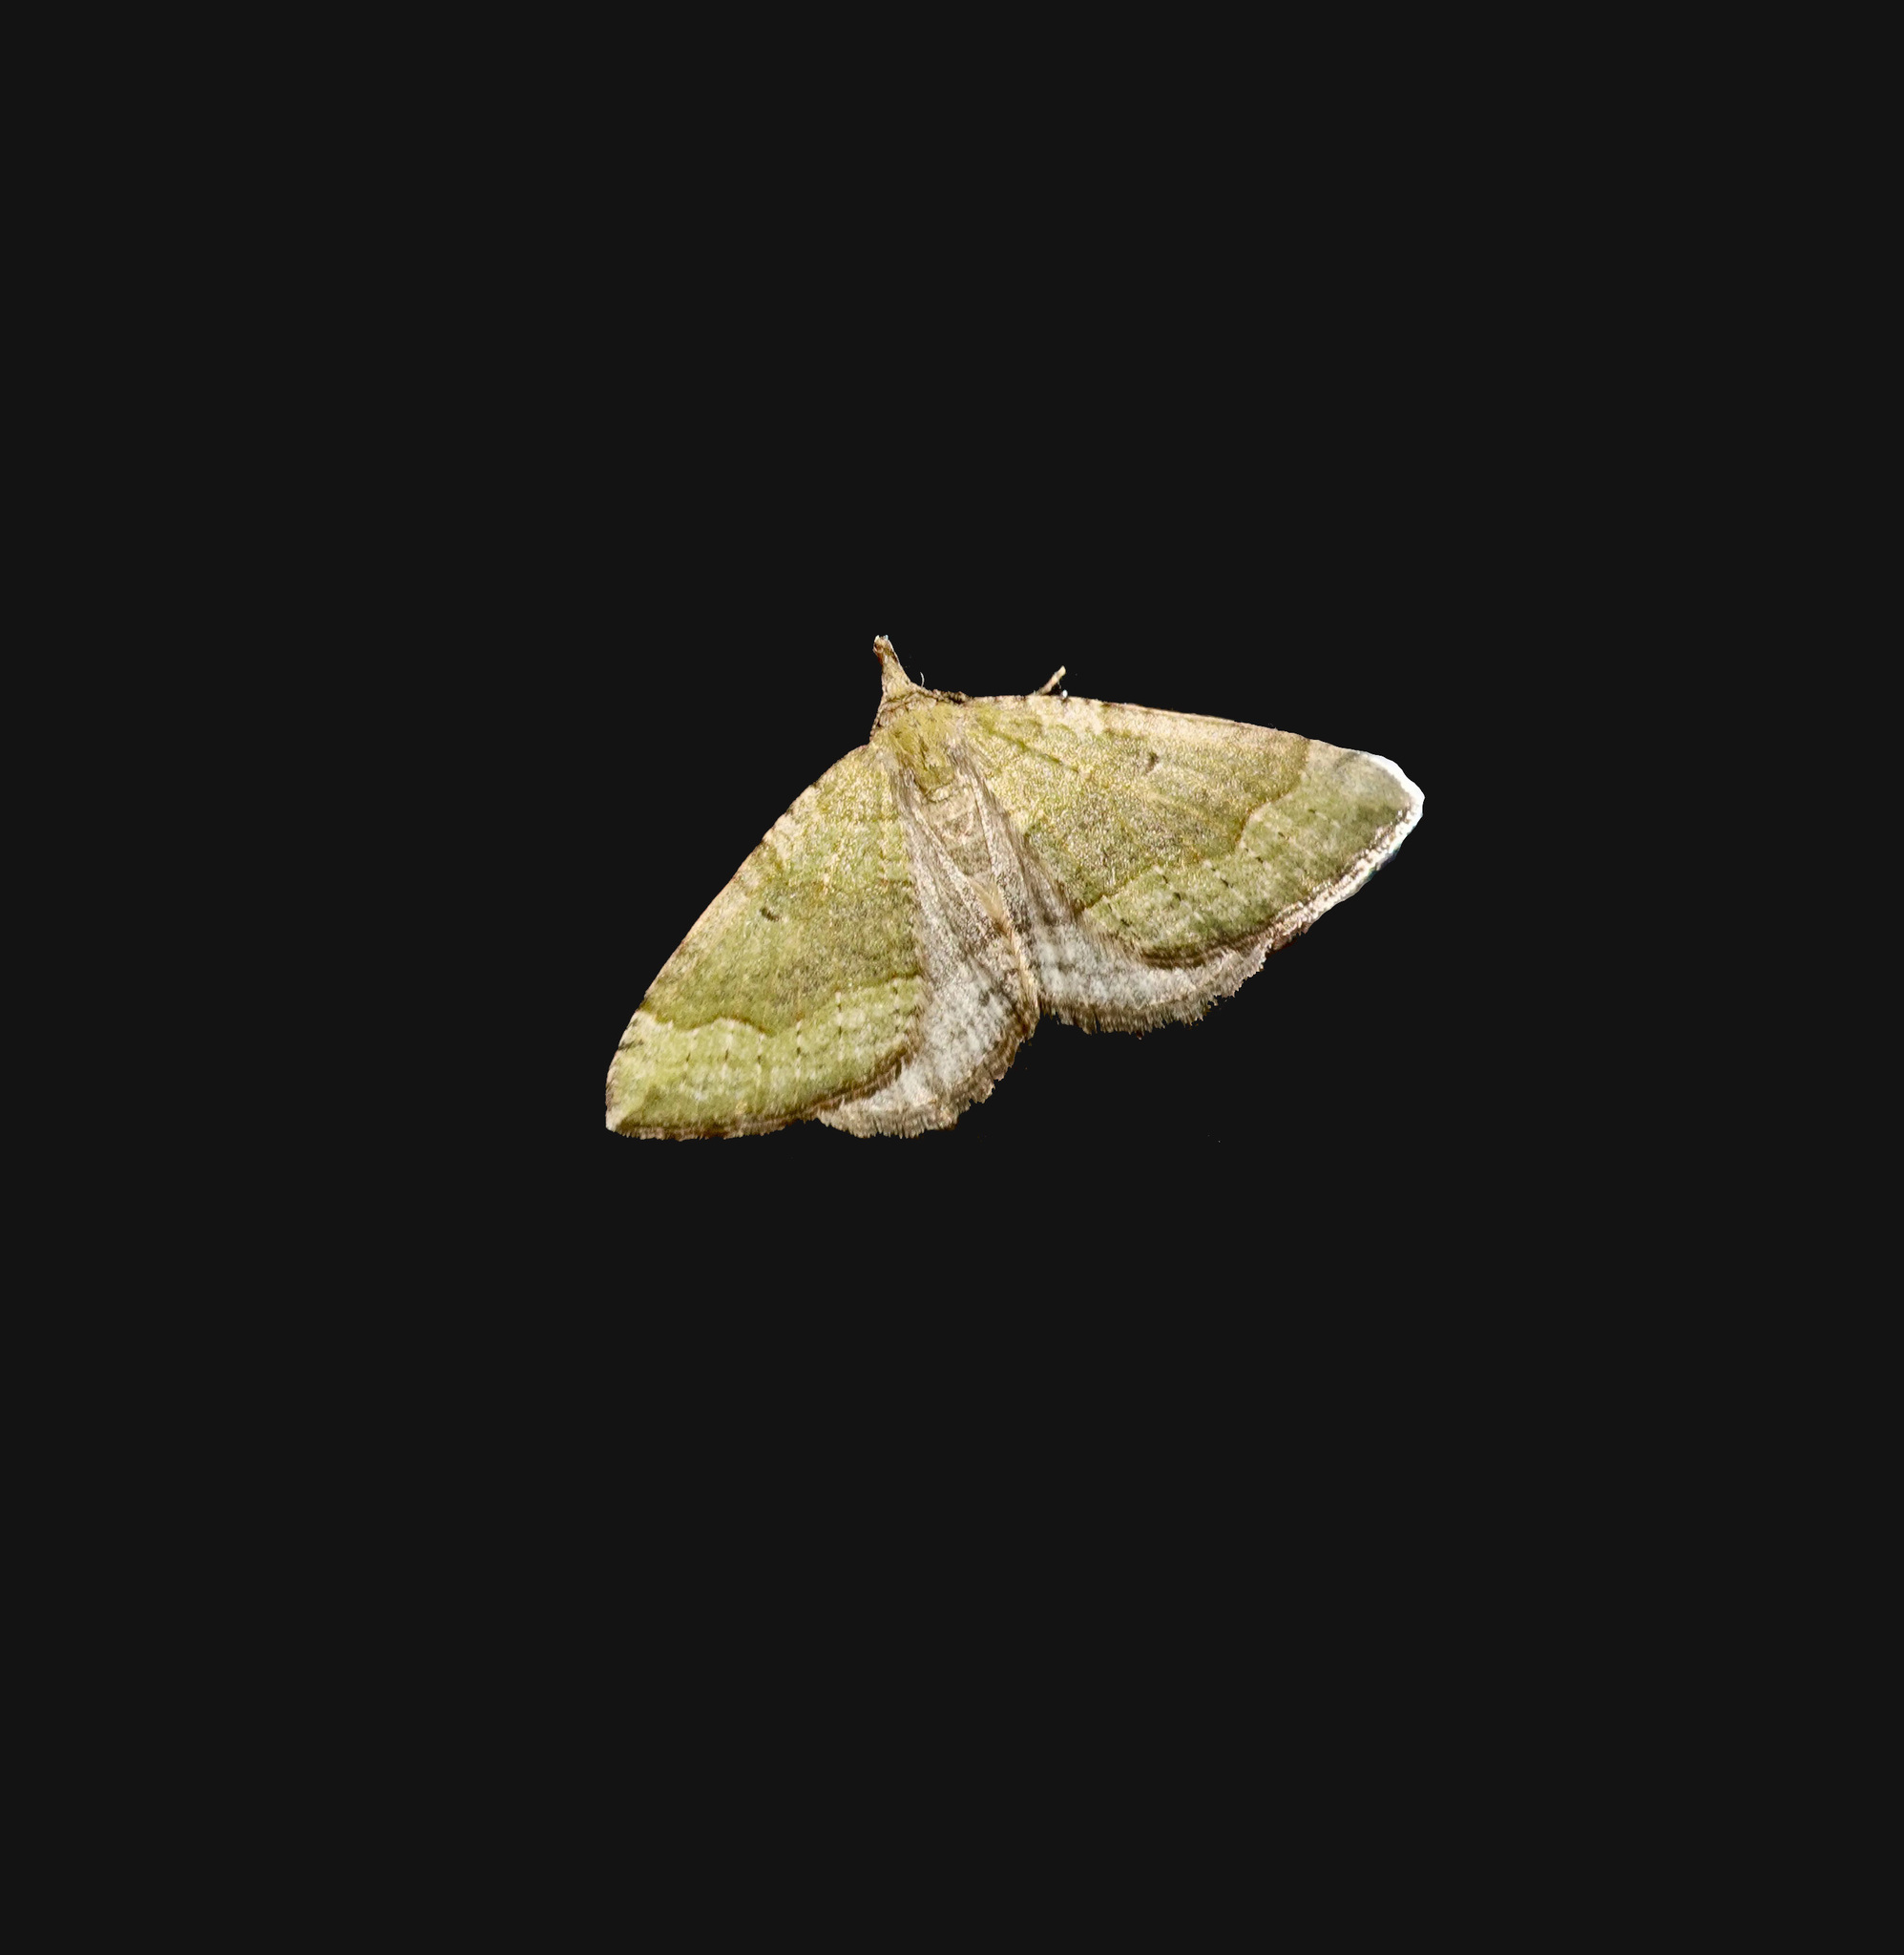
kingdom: Animalia
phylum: Arthropoda
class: Insecta
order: Lepidoptera
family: Geometridae
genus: Epyaxa
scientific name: Epyaxa rosearia
